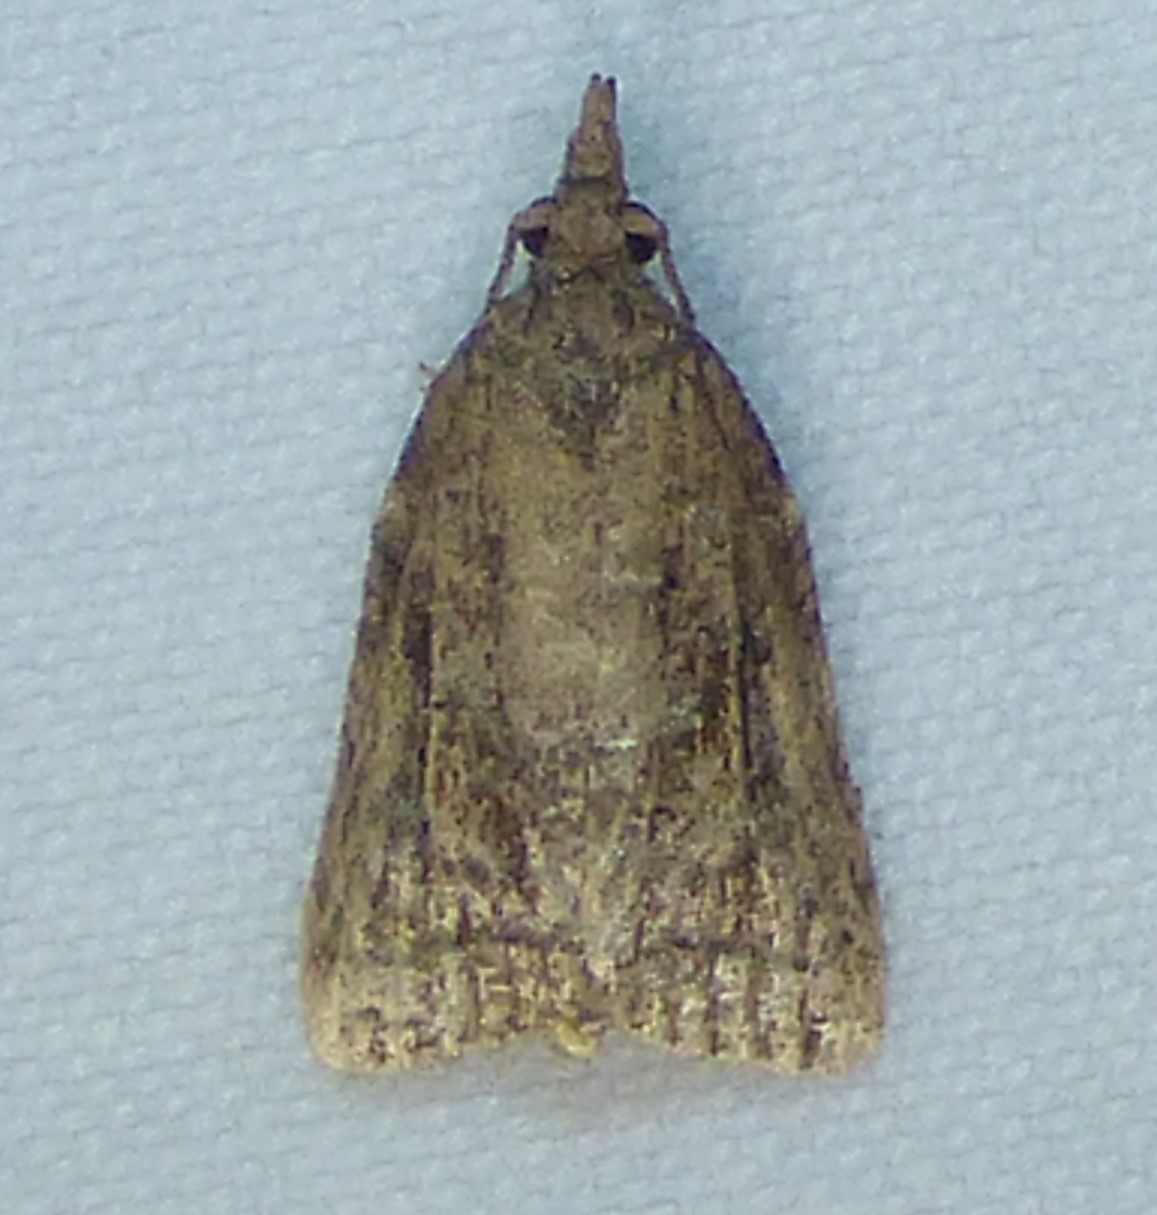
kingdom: Animalia
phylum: Arthropoda
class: Insecta
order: Lepidoptera
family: Tortricidae
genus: Platynota
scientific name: Platynota idaeusalis
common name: Tufted apple bud moth
